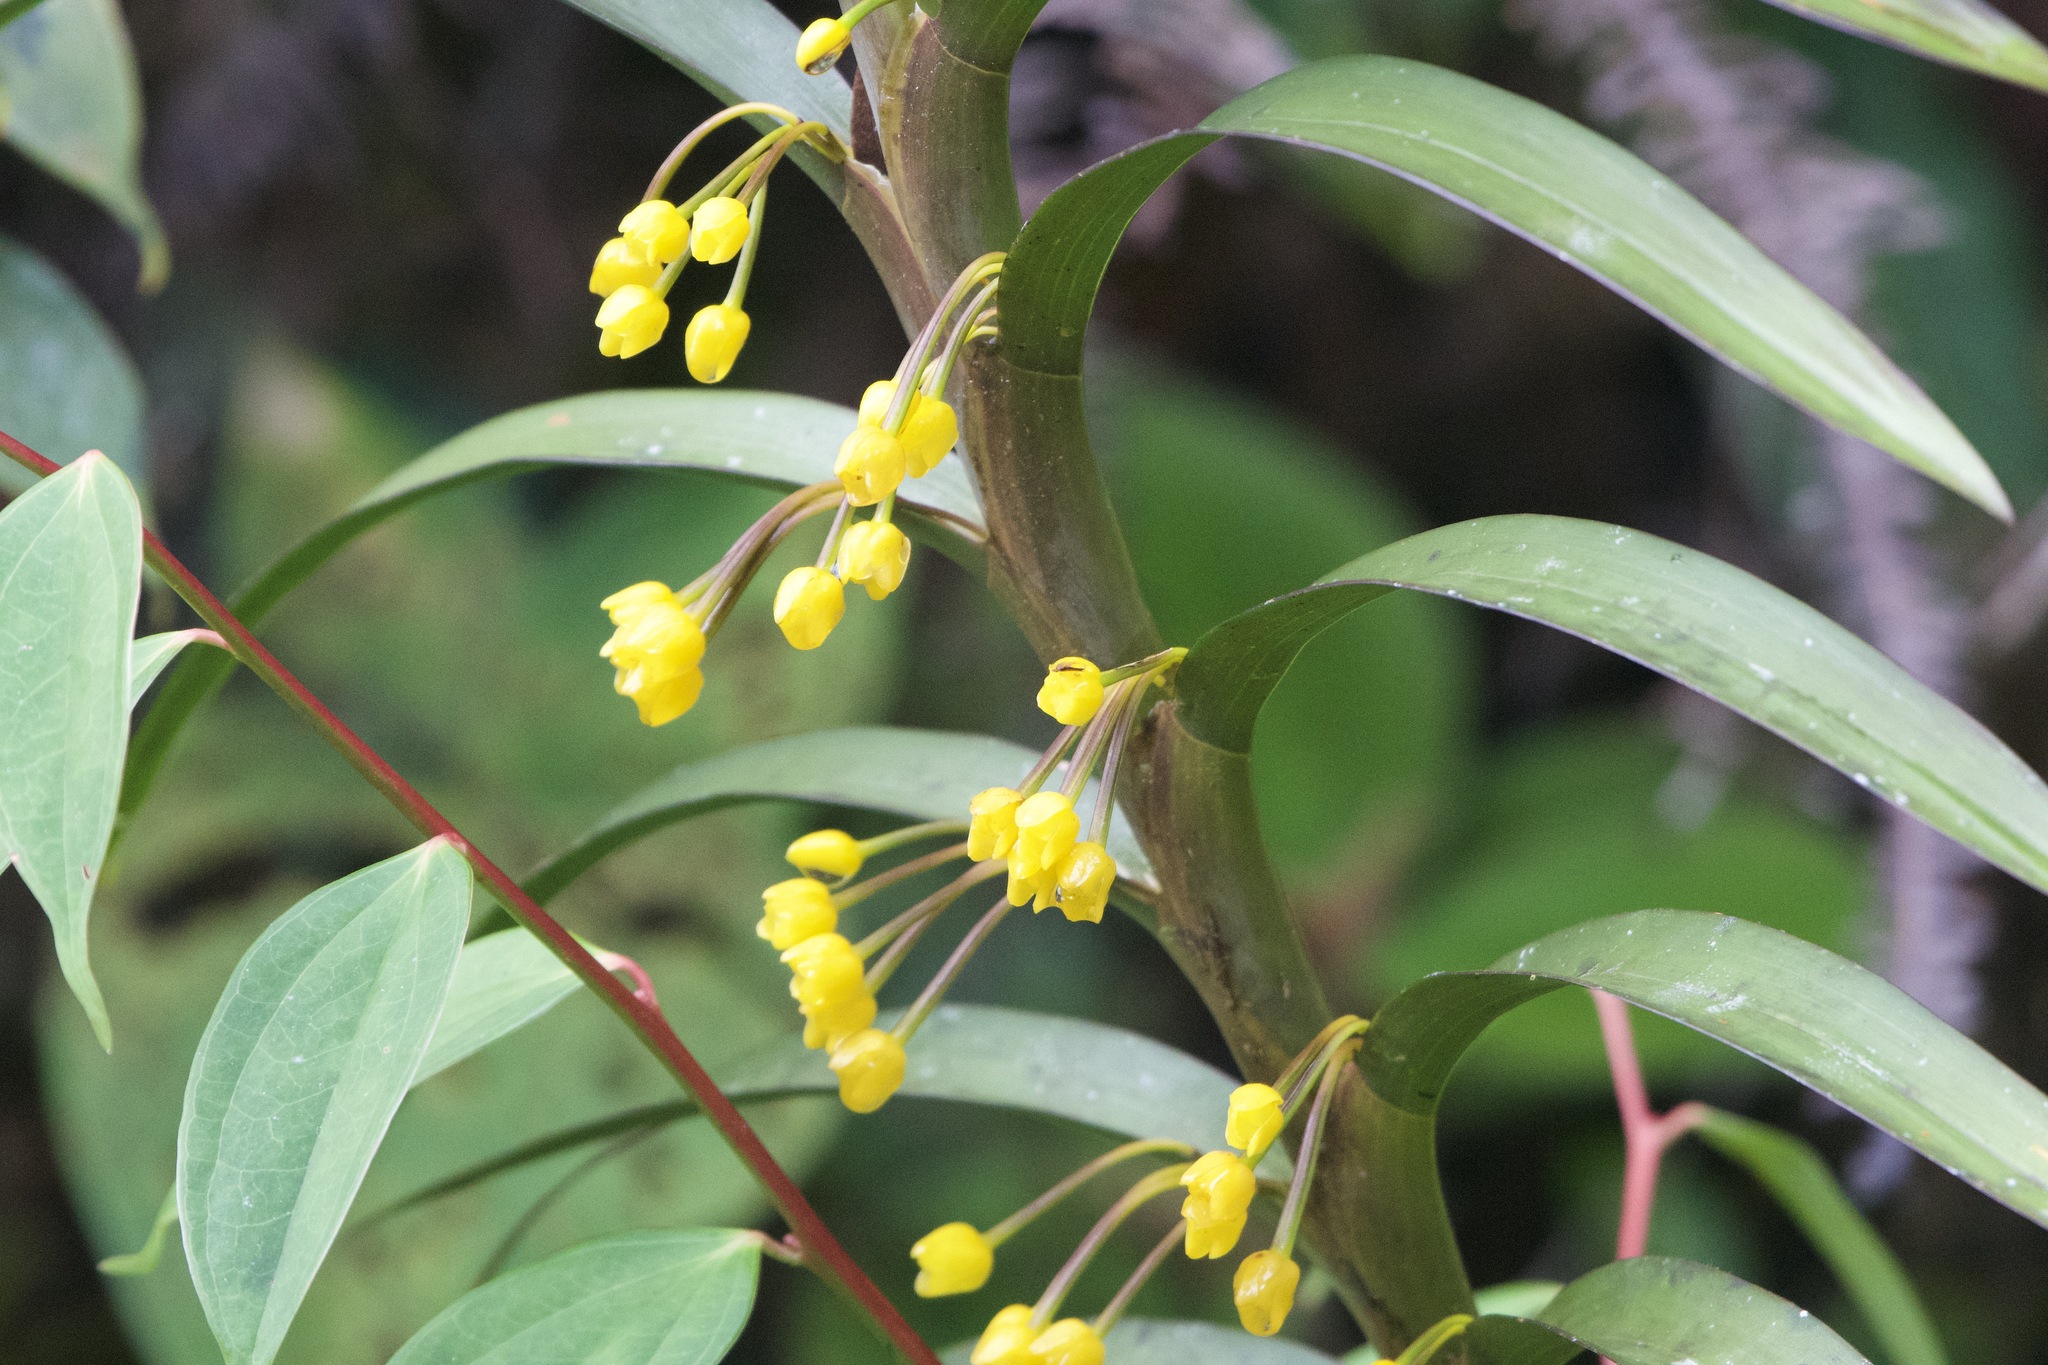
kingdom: Plantae
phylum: Tracheophyta
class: Liliopsida
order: Asparagales
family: Orchidaceae
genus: Maxillaria
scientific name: Maxillaria aurea
